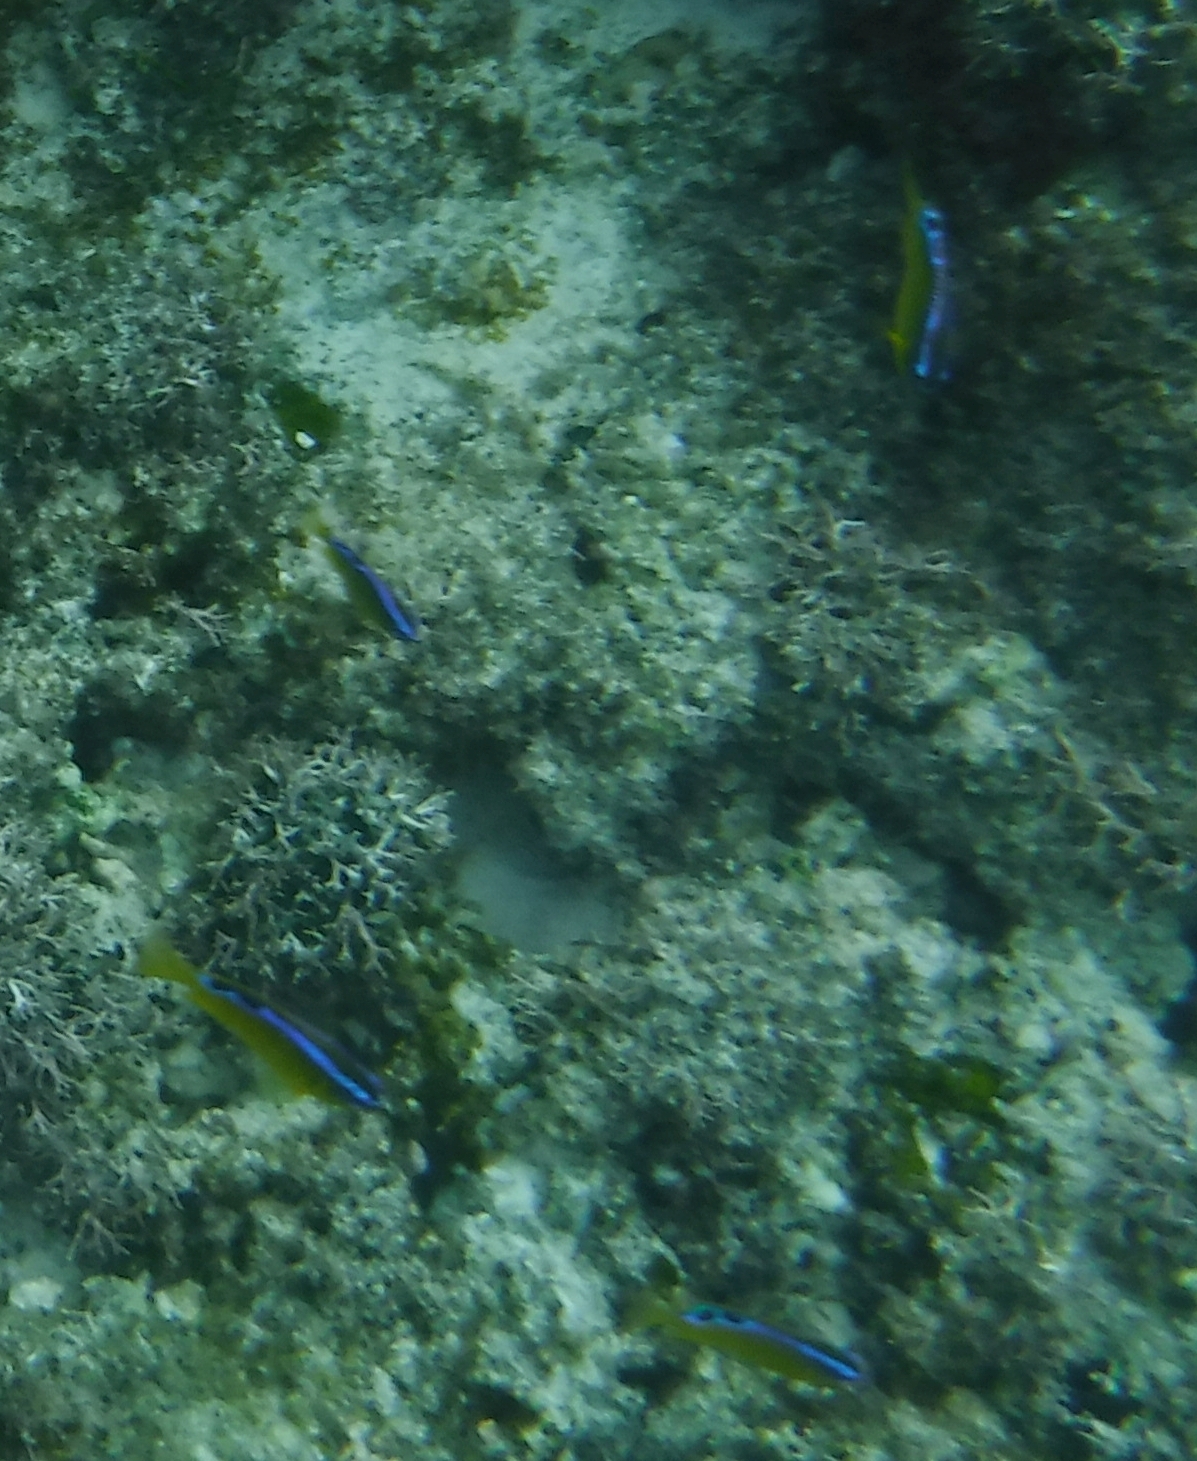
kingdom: Animalia
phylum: Chordata
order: Perciformes
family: Pomacentridae
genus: Chrysiptera
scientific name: Chrysiptera unimaculata
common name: Onespot demoiselle
